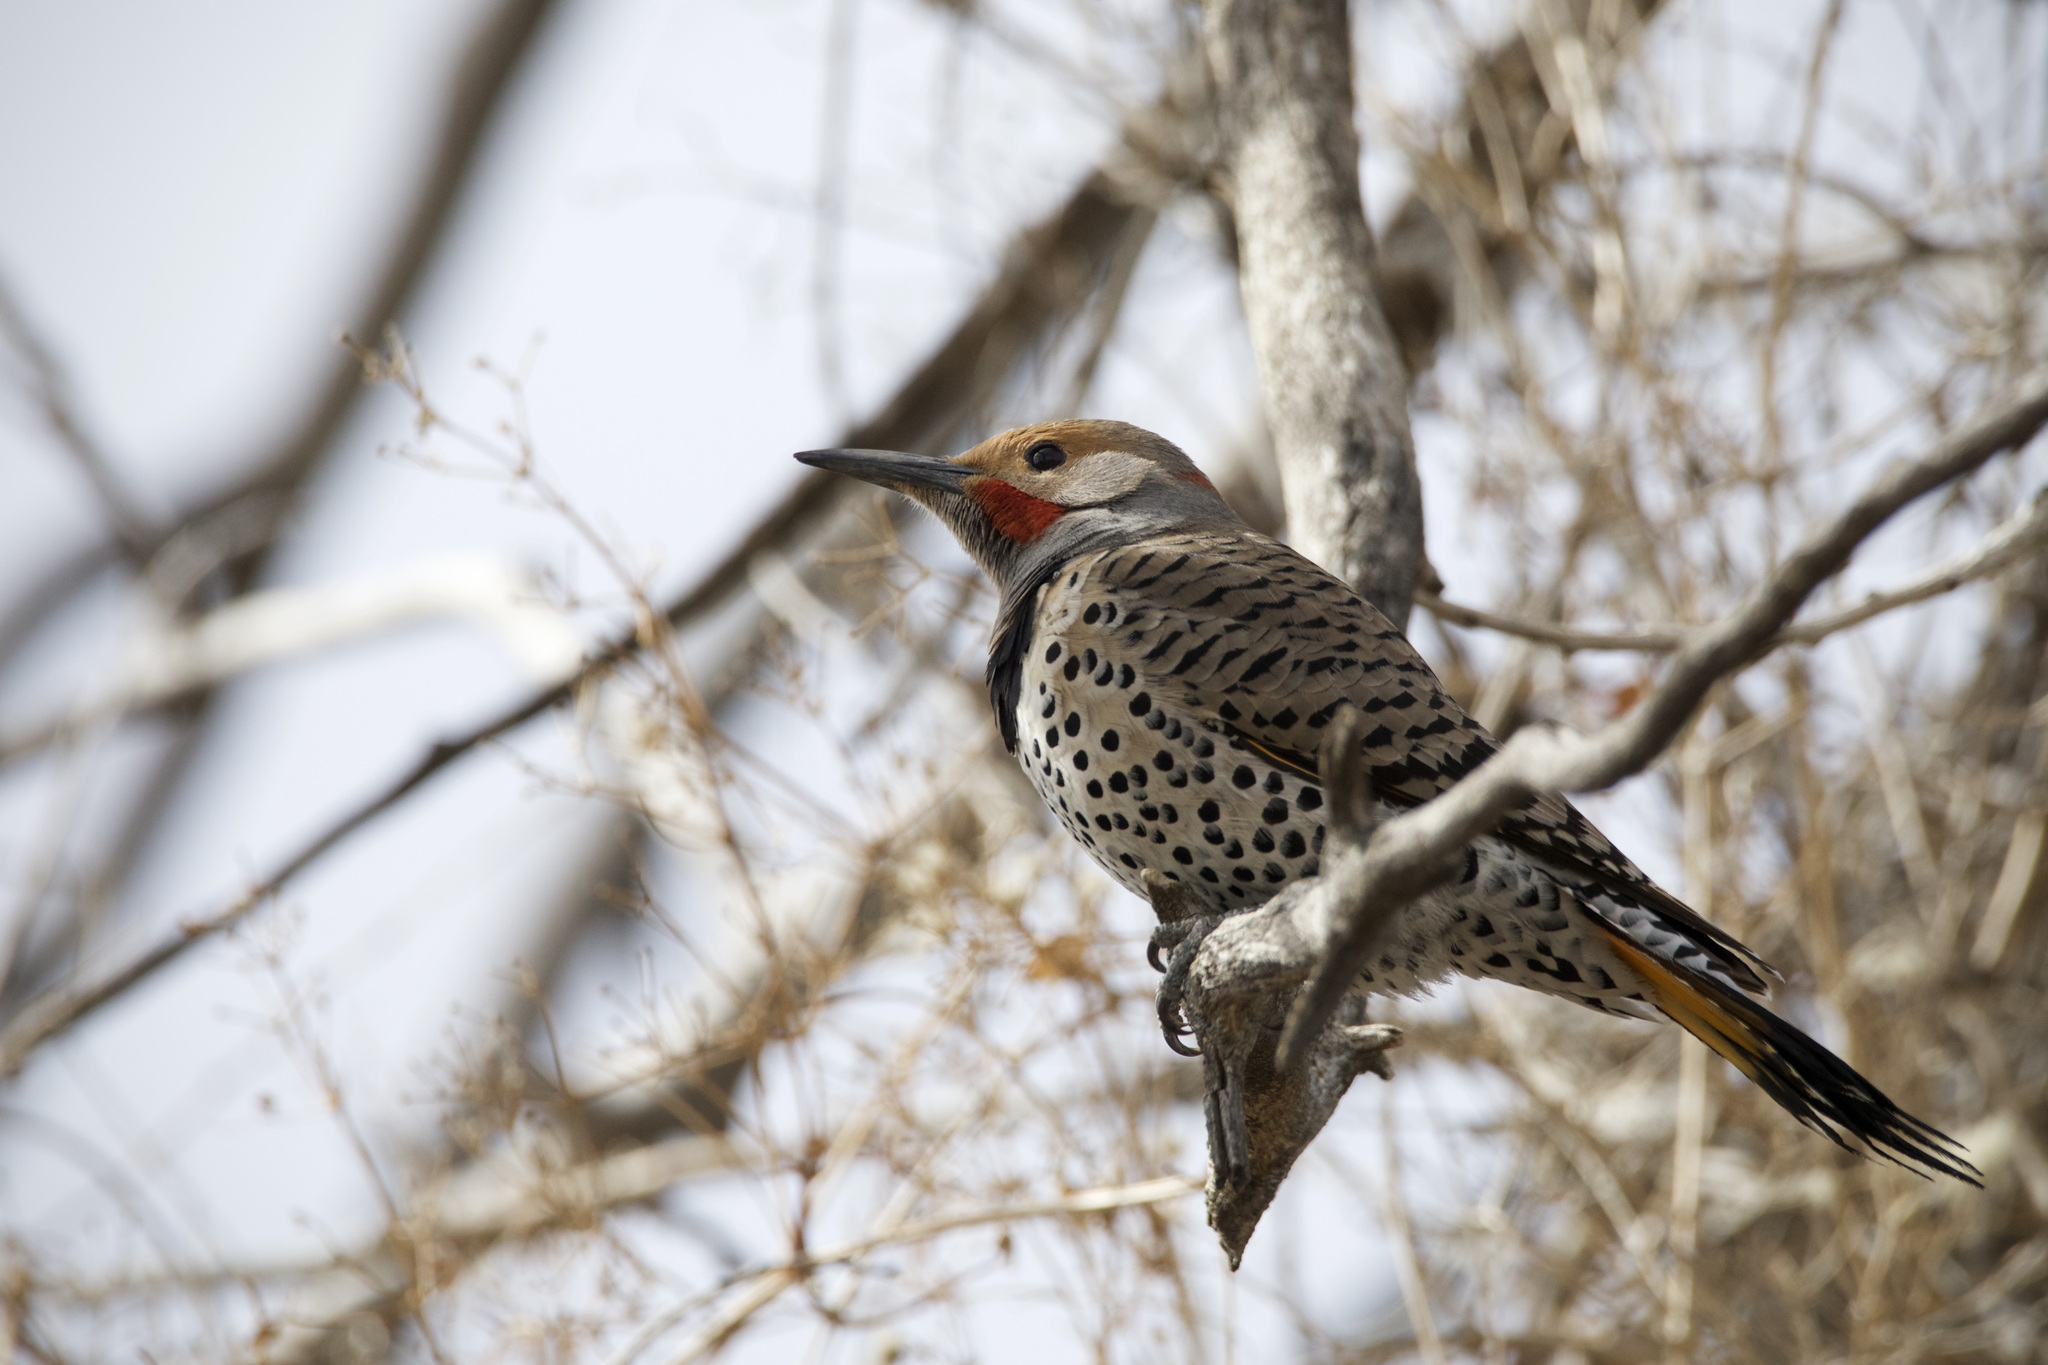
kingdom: Animalia
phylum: Chordata
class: Aves
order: Piciformes
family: Picidae
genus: Colaptes
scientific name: Colaptes auratus
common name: Northern flicker
